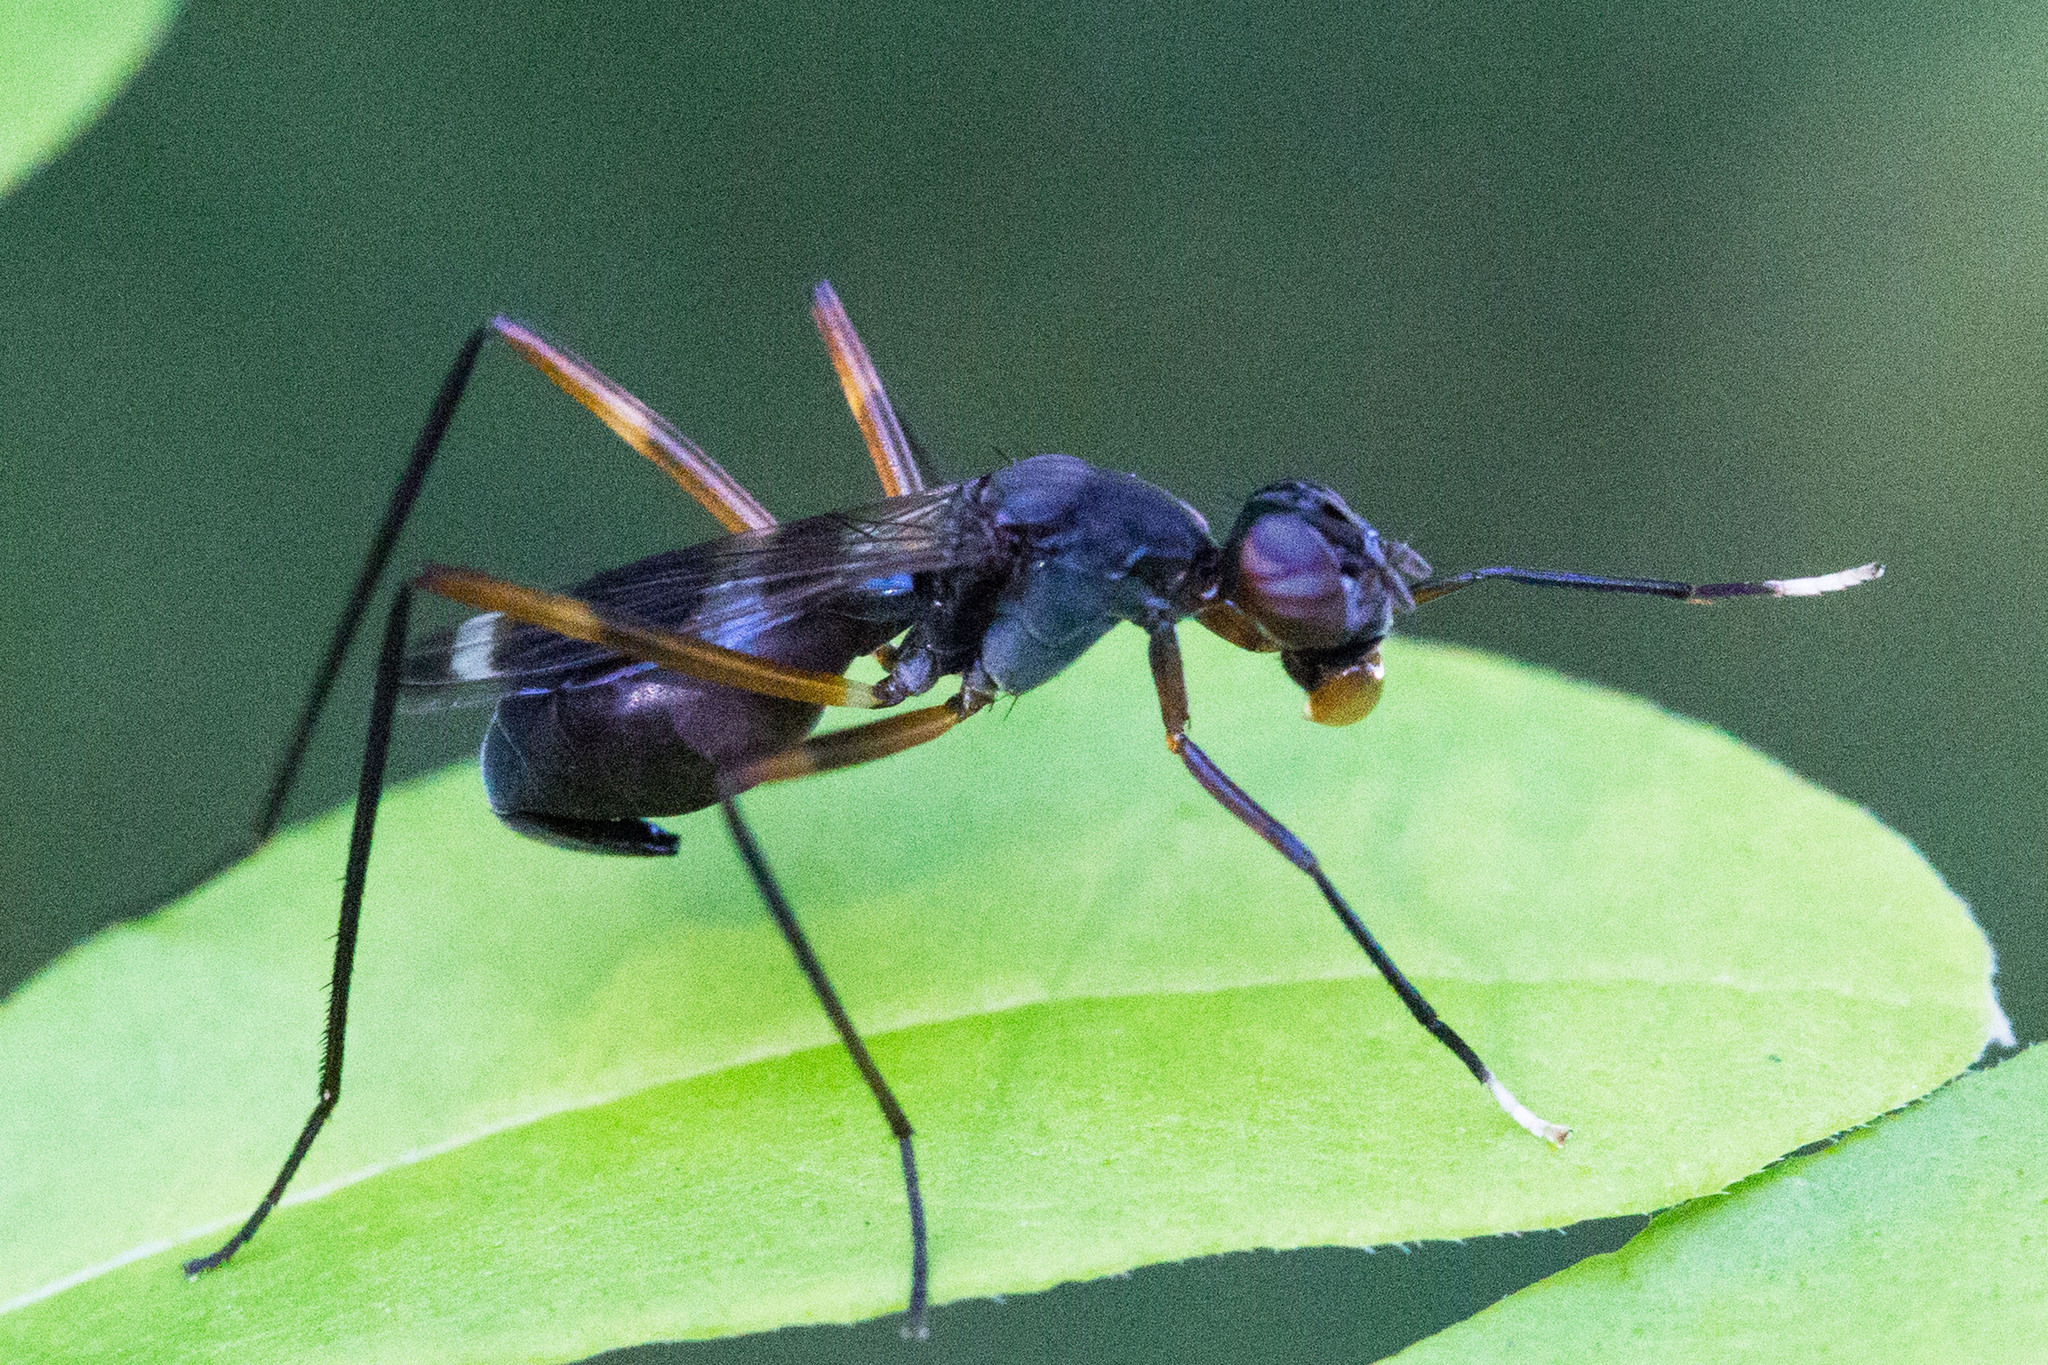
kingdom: Animalia
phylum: Arthropoda
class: Insecta
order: Diptera
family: Micropezidae
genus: Taeniaptera
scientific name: Taeniaptera trivittata
